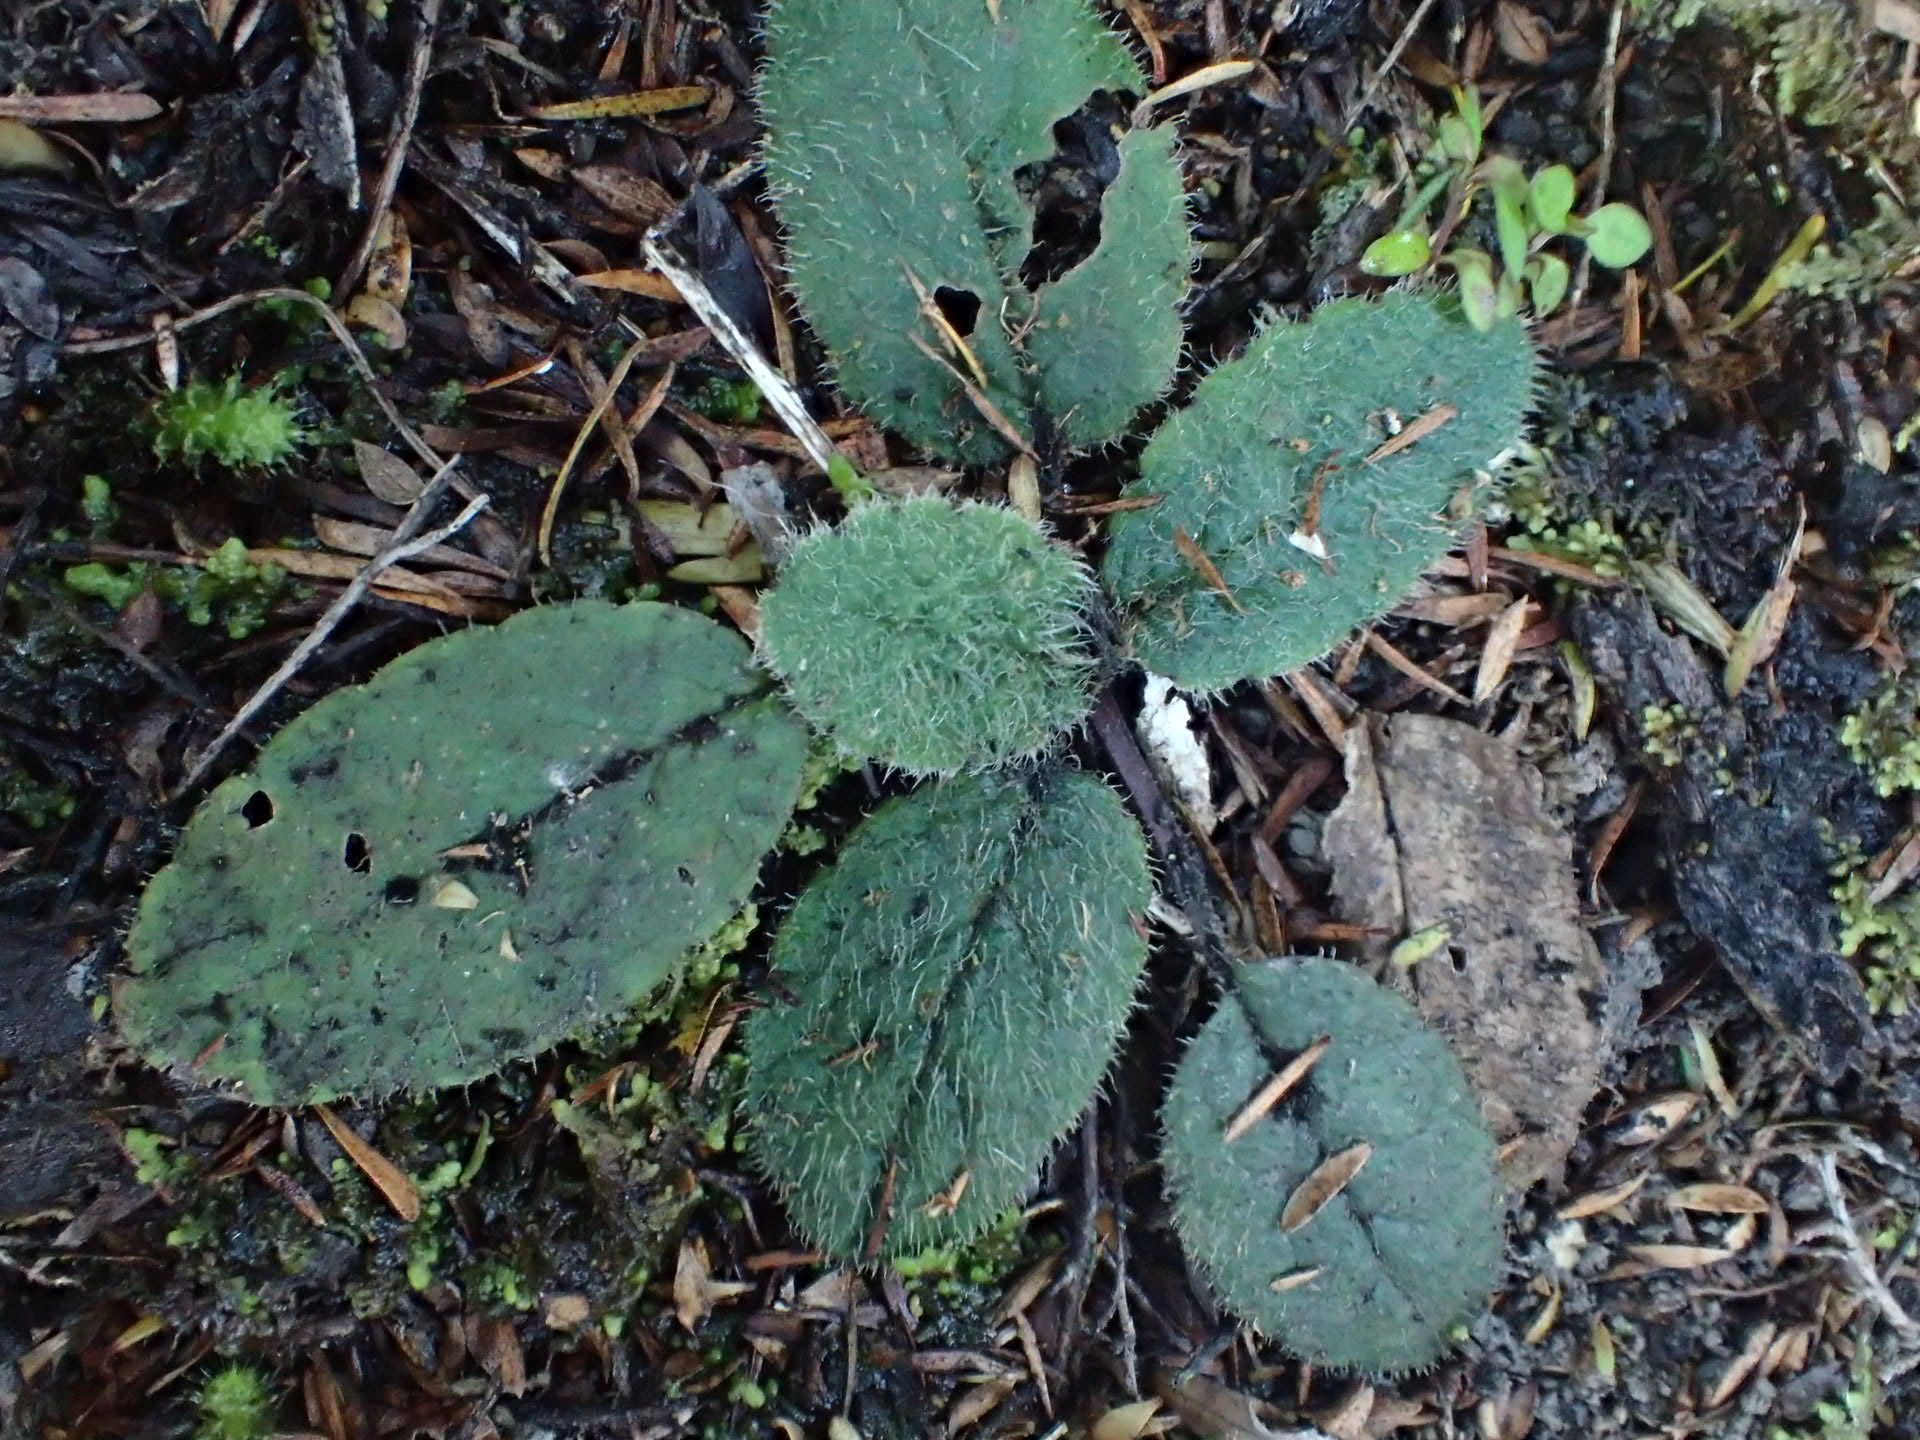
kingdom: Plantae
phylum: Tracheophyta
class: Magnoliopsida
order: Asterales
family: Asteraceae
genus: Brachyglottis
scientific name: Brachyglottis lagopus
